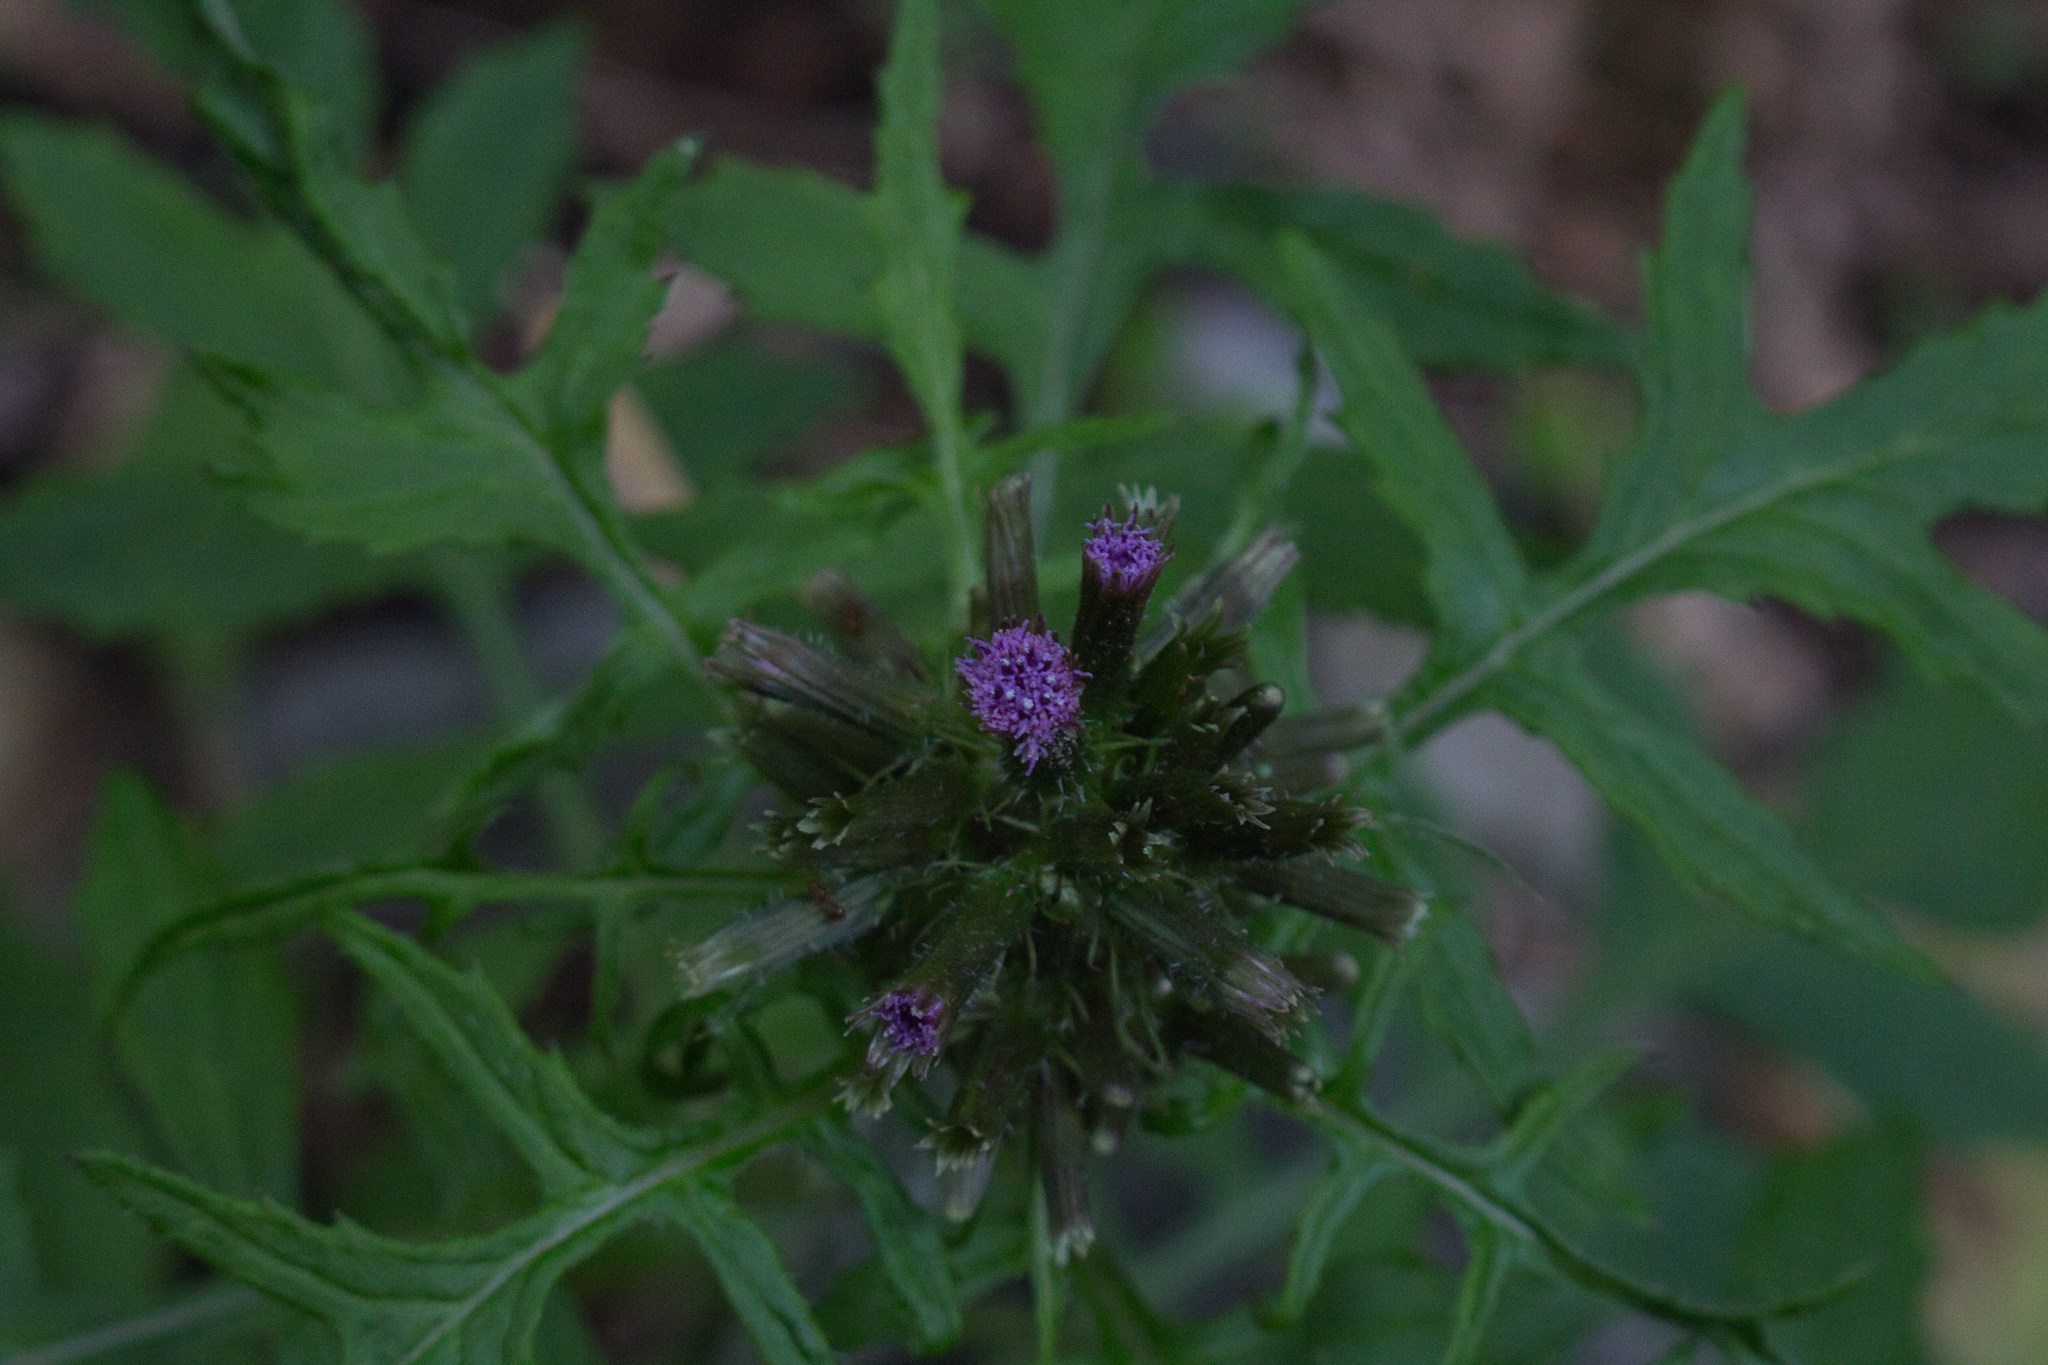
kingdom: Plantae
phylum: Tracheophyta
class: Magnoliopsida
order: Asterales
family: Asteraceae
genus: Erechtites
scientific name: Erechtites valerianifolius
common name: Tropical burnweed
